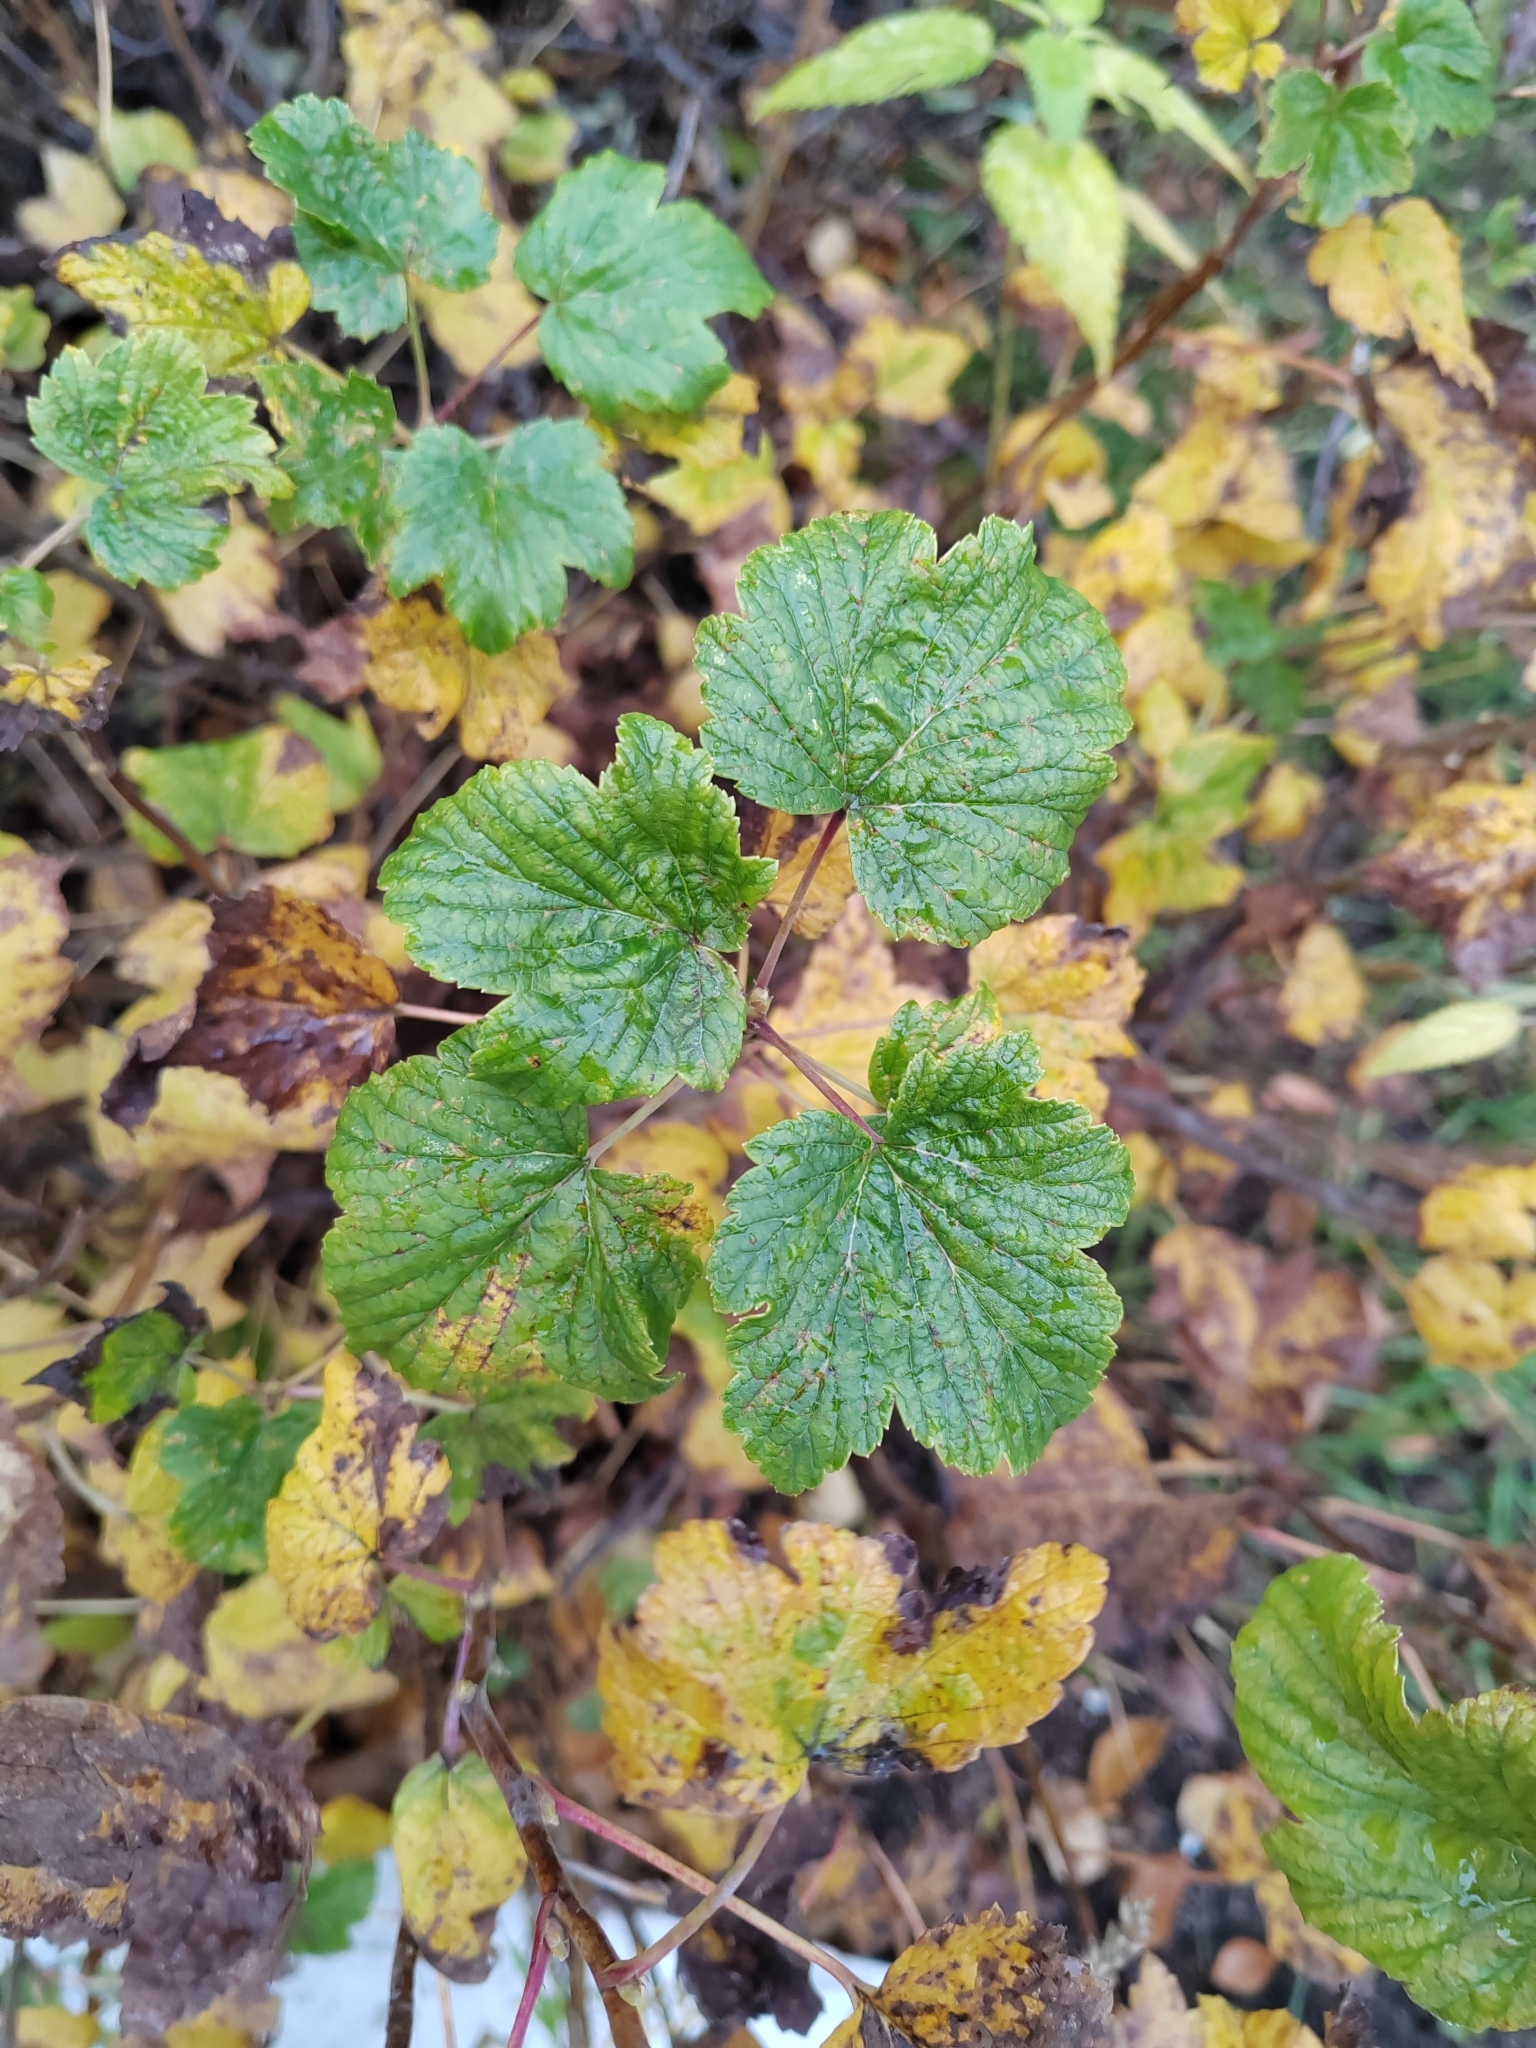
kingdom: Plantae
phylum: Tracheophyta
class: Magnoliopsida
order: Saxifragales
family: Grossulariaceae
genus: Ribes
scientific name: Ribes nigrum
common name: Black currant
